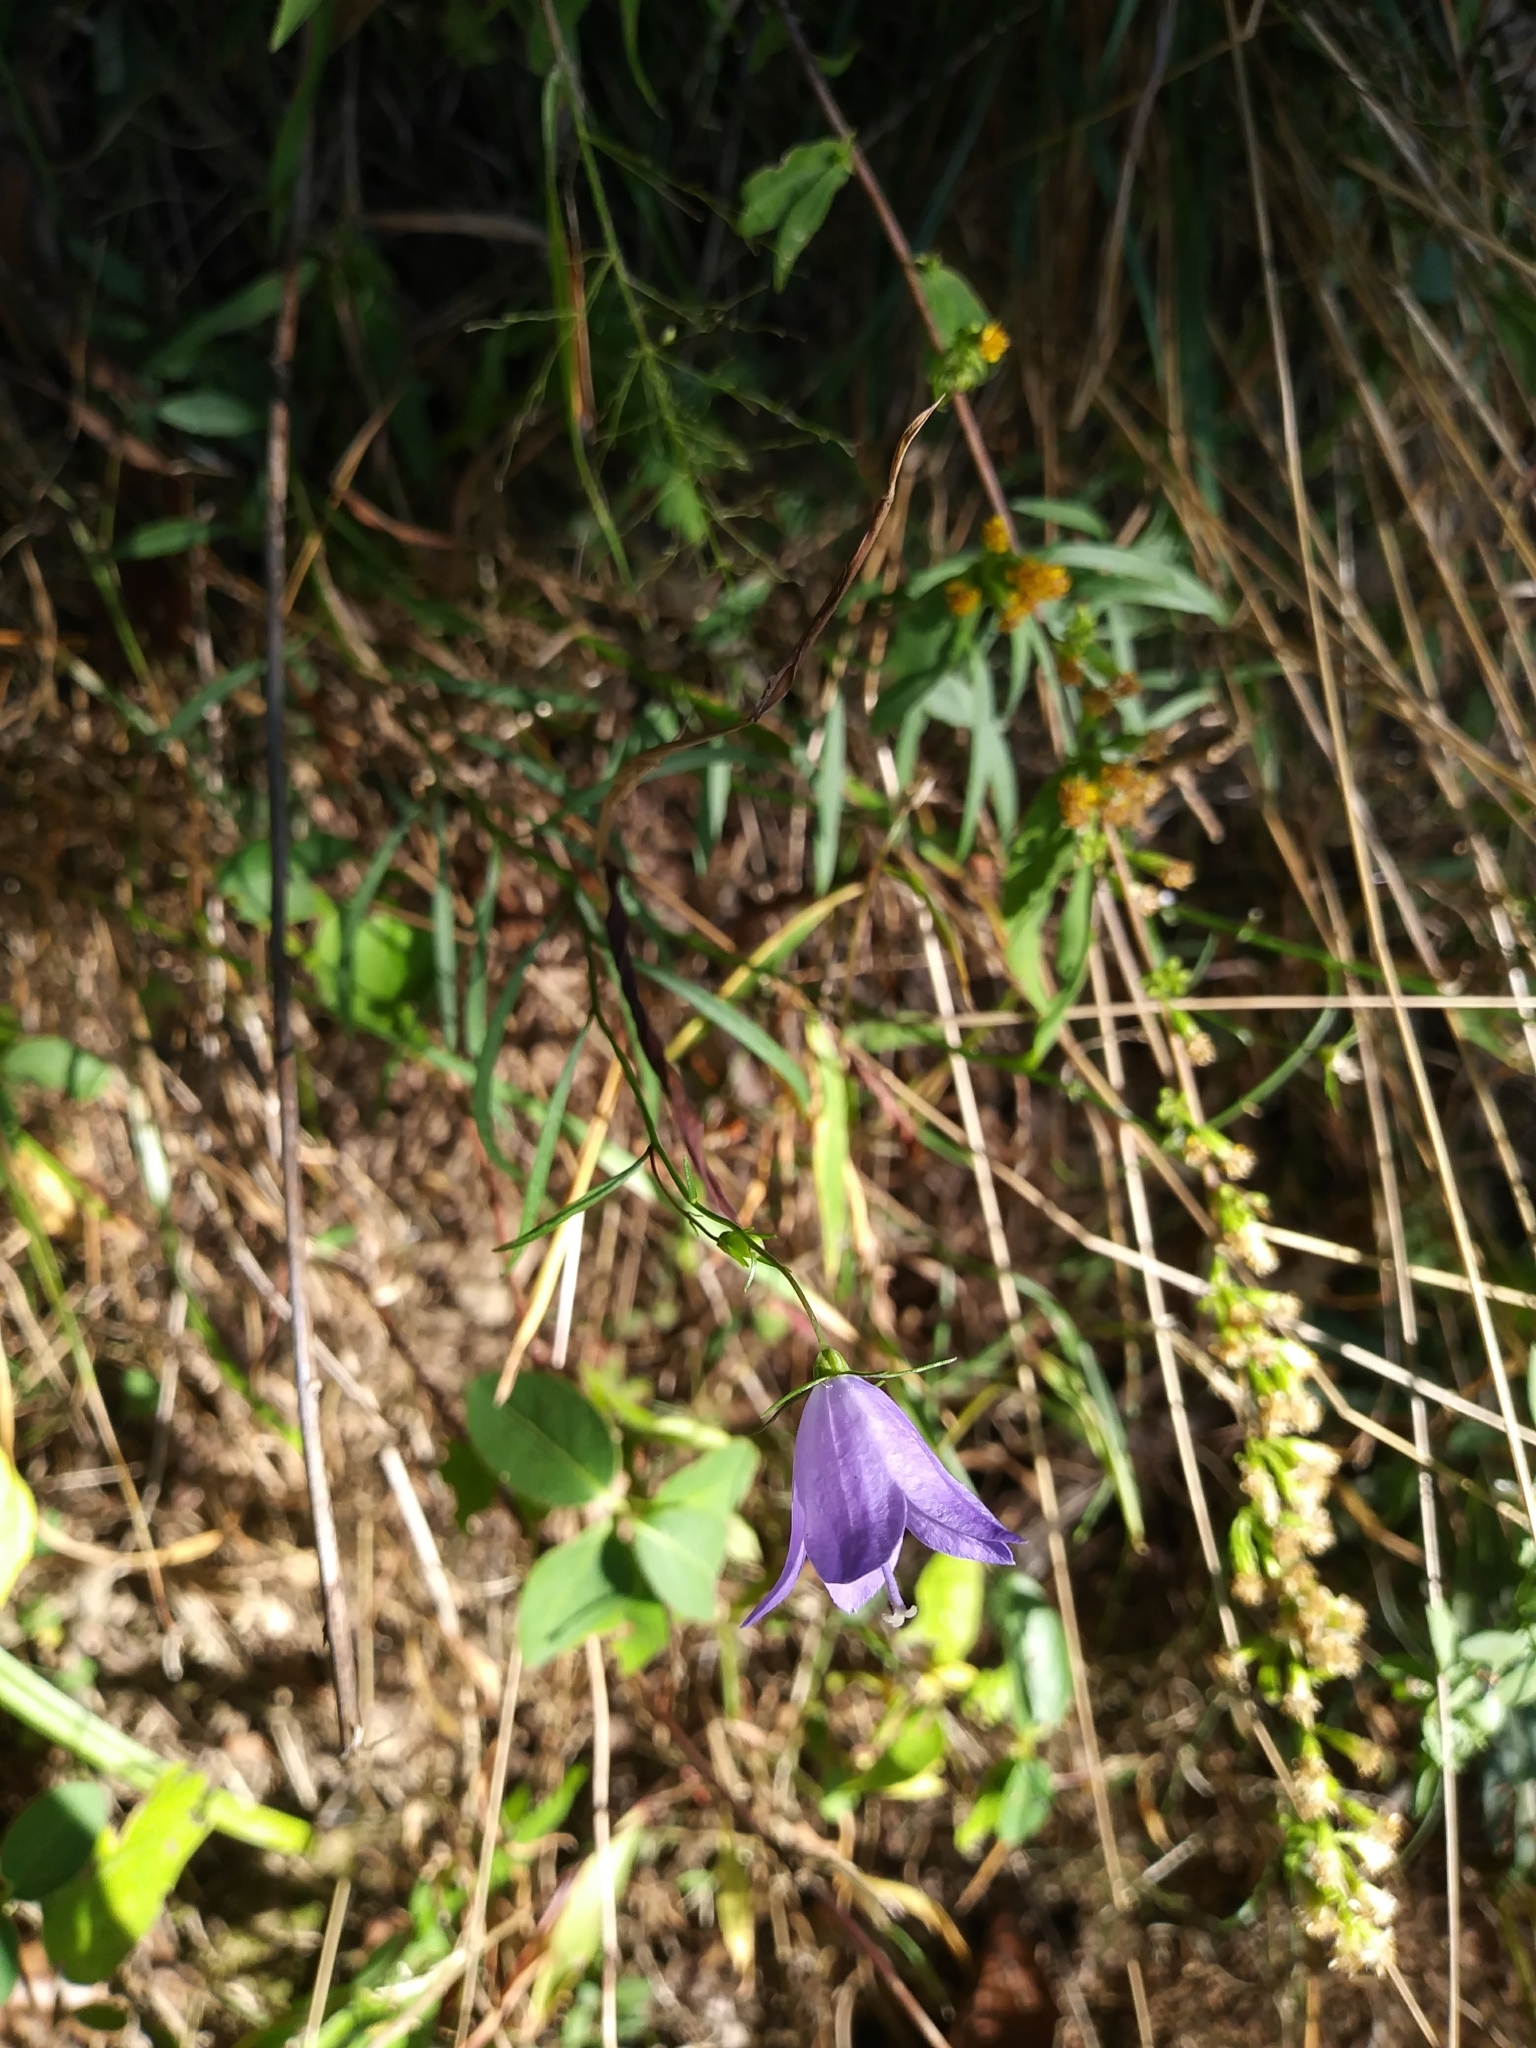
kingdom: Plantae
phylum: Tracheophyta
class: Magnoliopsida
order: Asterales
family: Campanulaceae
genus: Campanula
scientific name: Campanula intercedens
